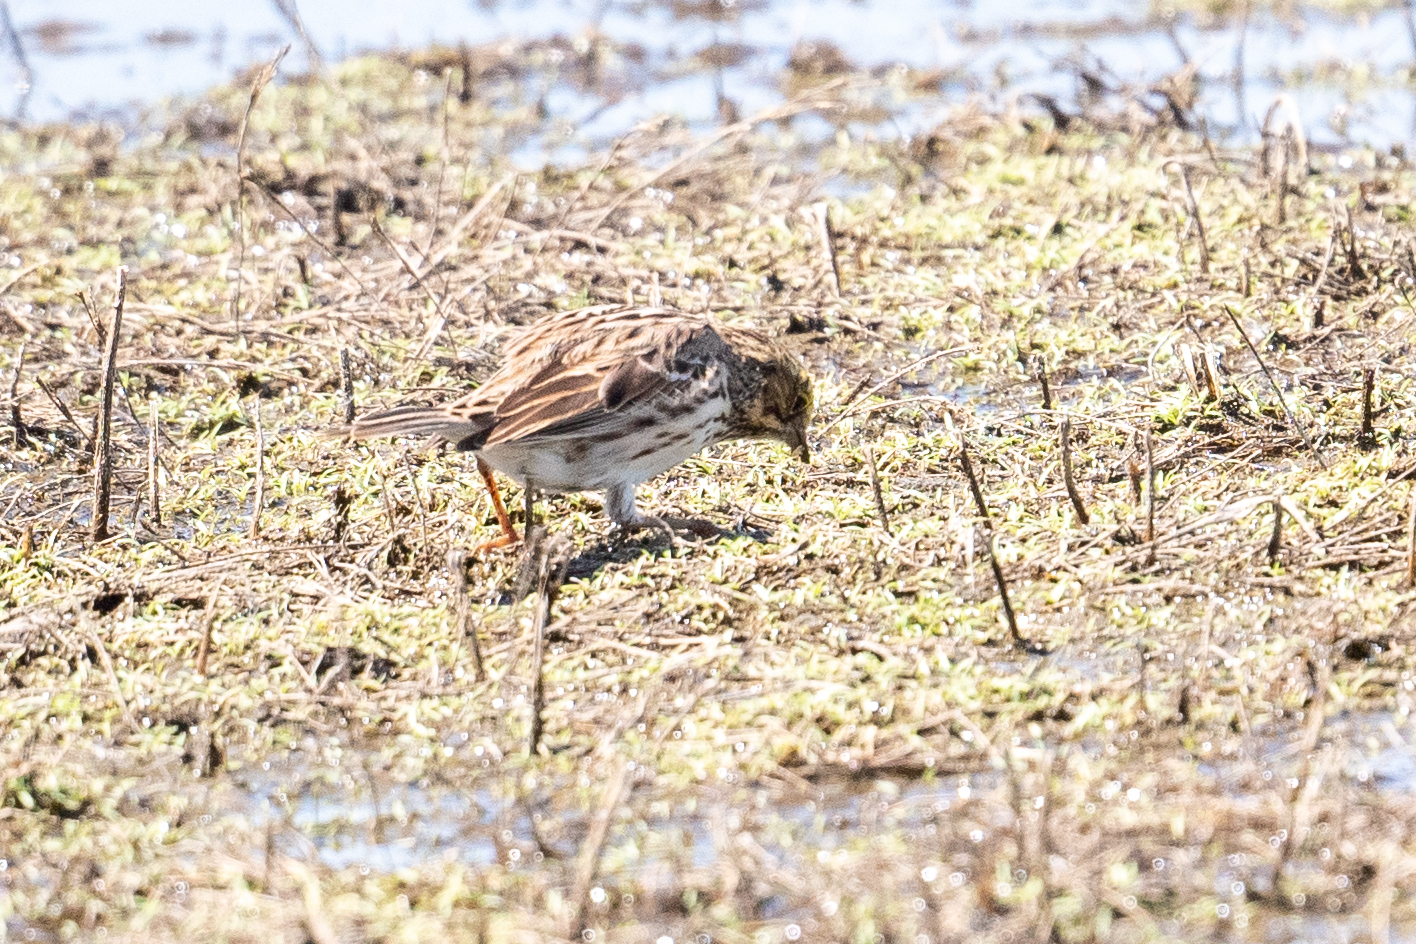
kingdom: Animalia
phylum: Chordata
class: Aves
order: Passeriformes
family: Passerellidae
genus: Passerculus
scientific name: Passerculus sandwichensis
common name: Savannah sparrow
